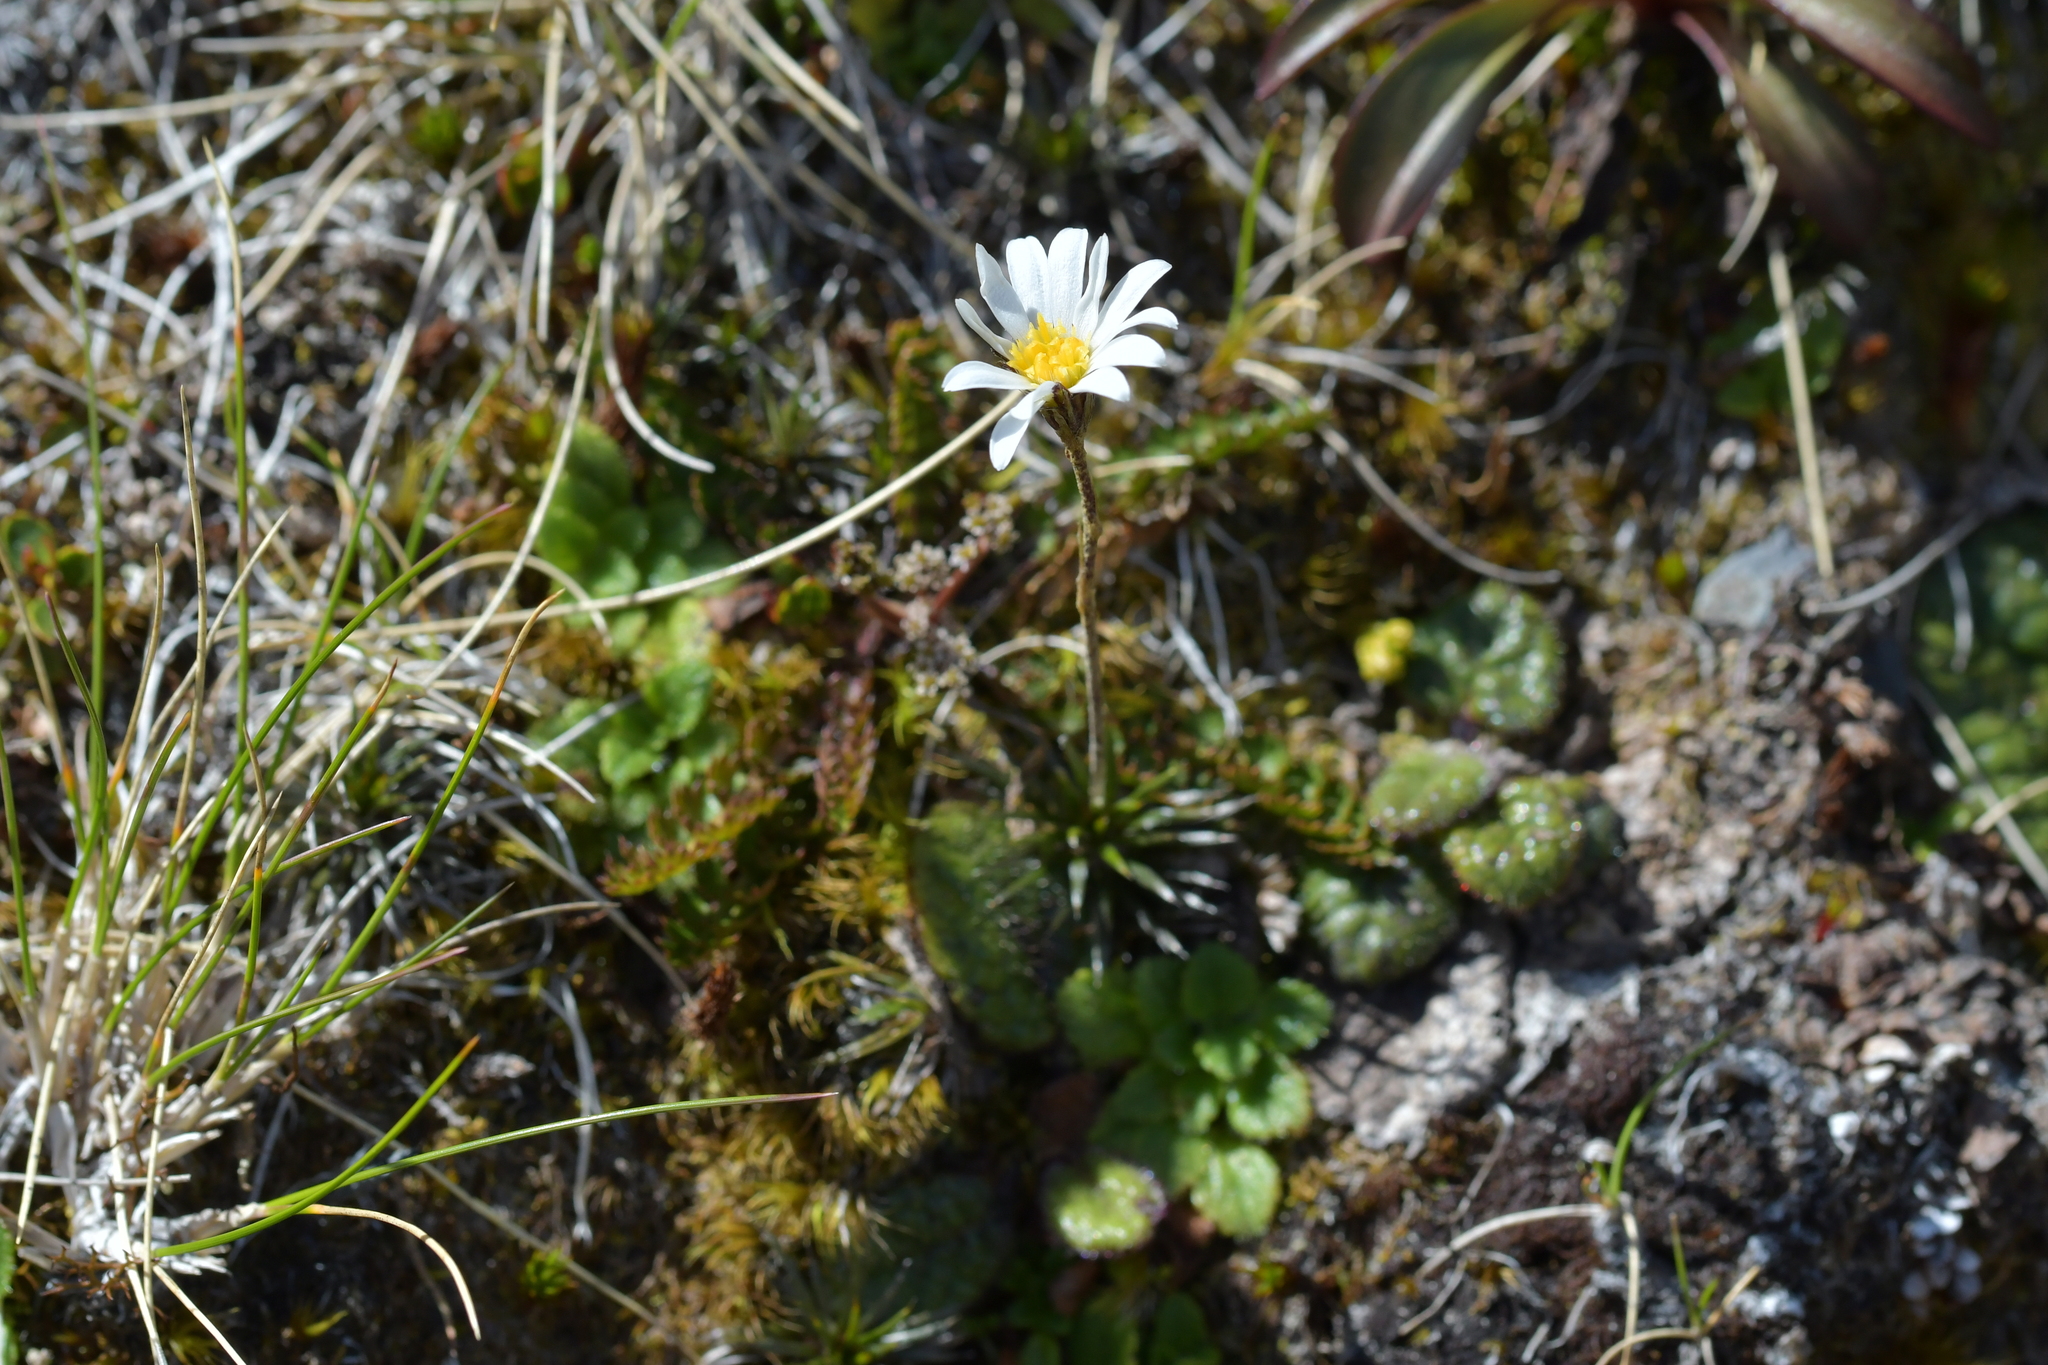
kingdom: Plantae
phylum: Tracheophyta
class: Magnoliopsida
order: Asterales
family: Asteraceae
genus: Celmisia
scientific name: Celmisia laricifolia
